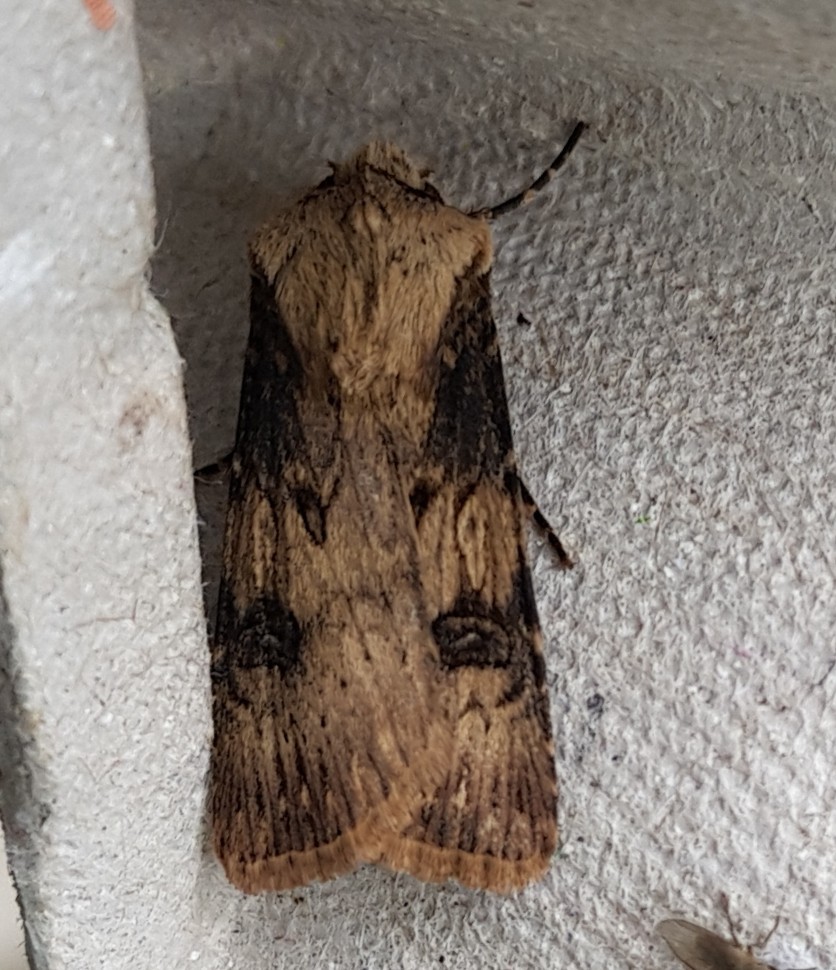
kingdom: Animalia
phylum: Arthropoda
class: Insecta
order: Lepidoptera
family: Noctuidae
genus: Agrotis
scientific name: Agrotis puta
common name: Shuttle-shaped dart
